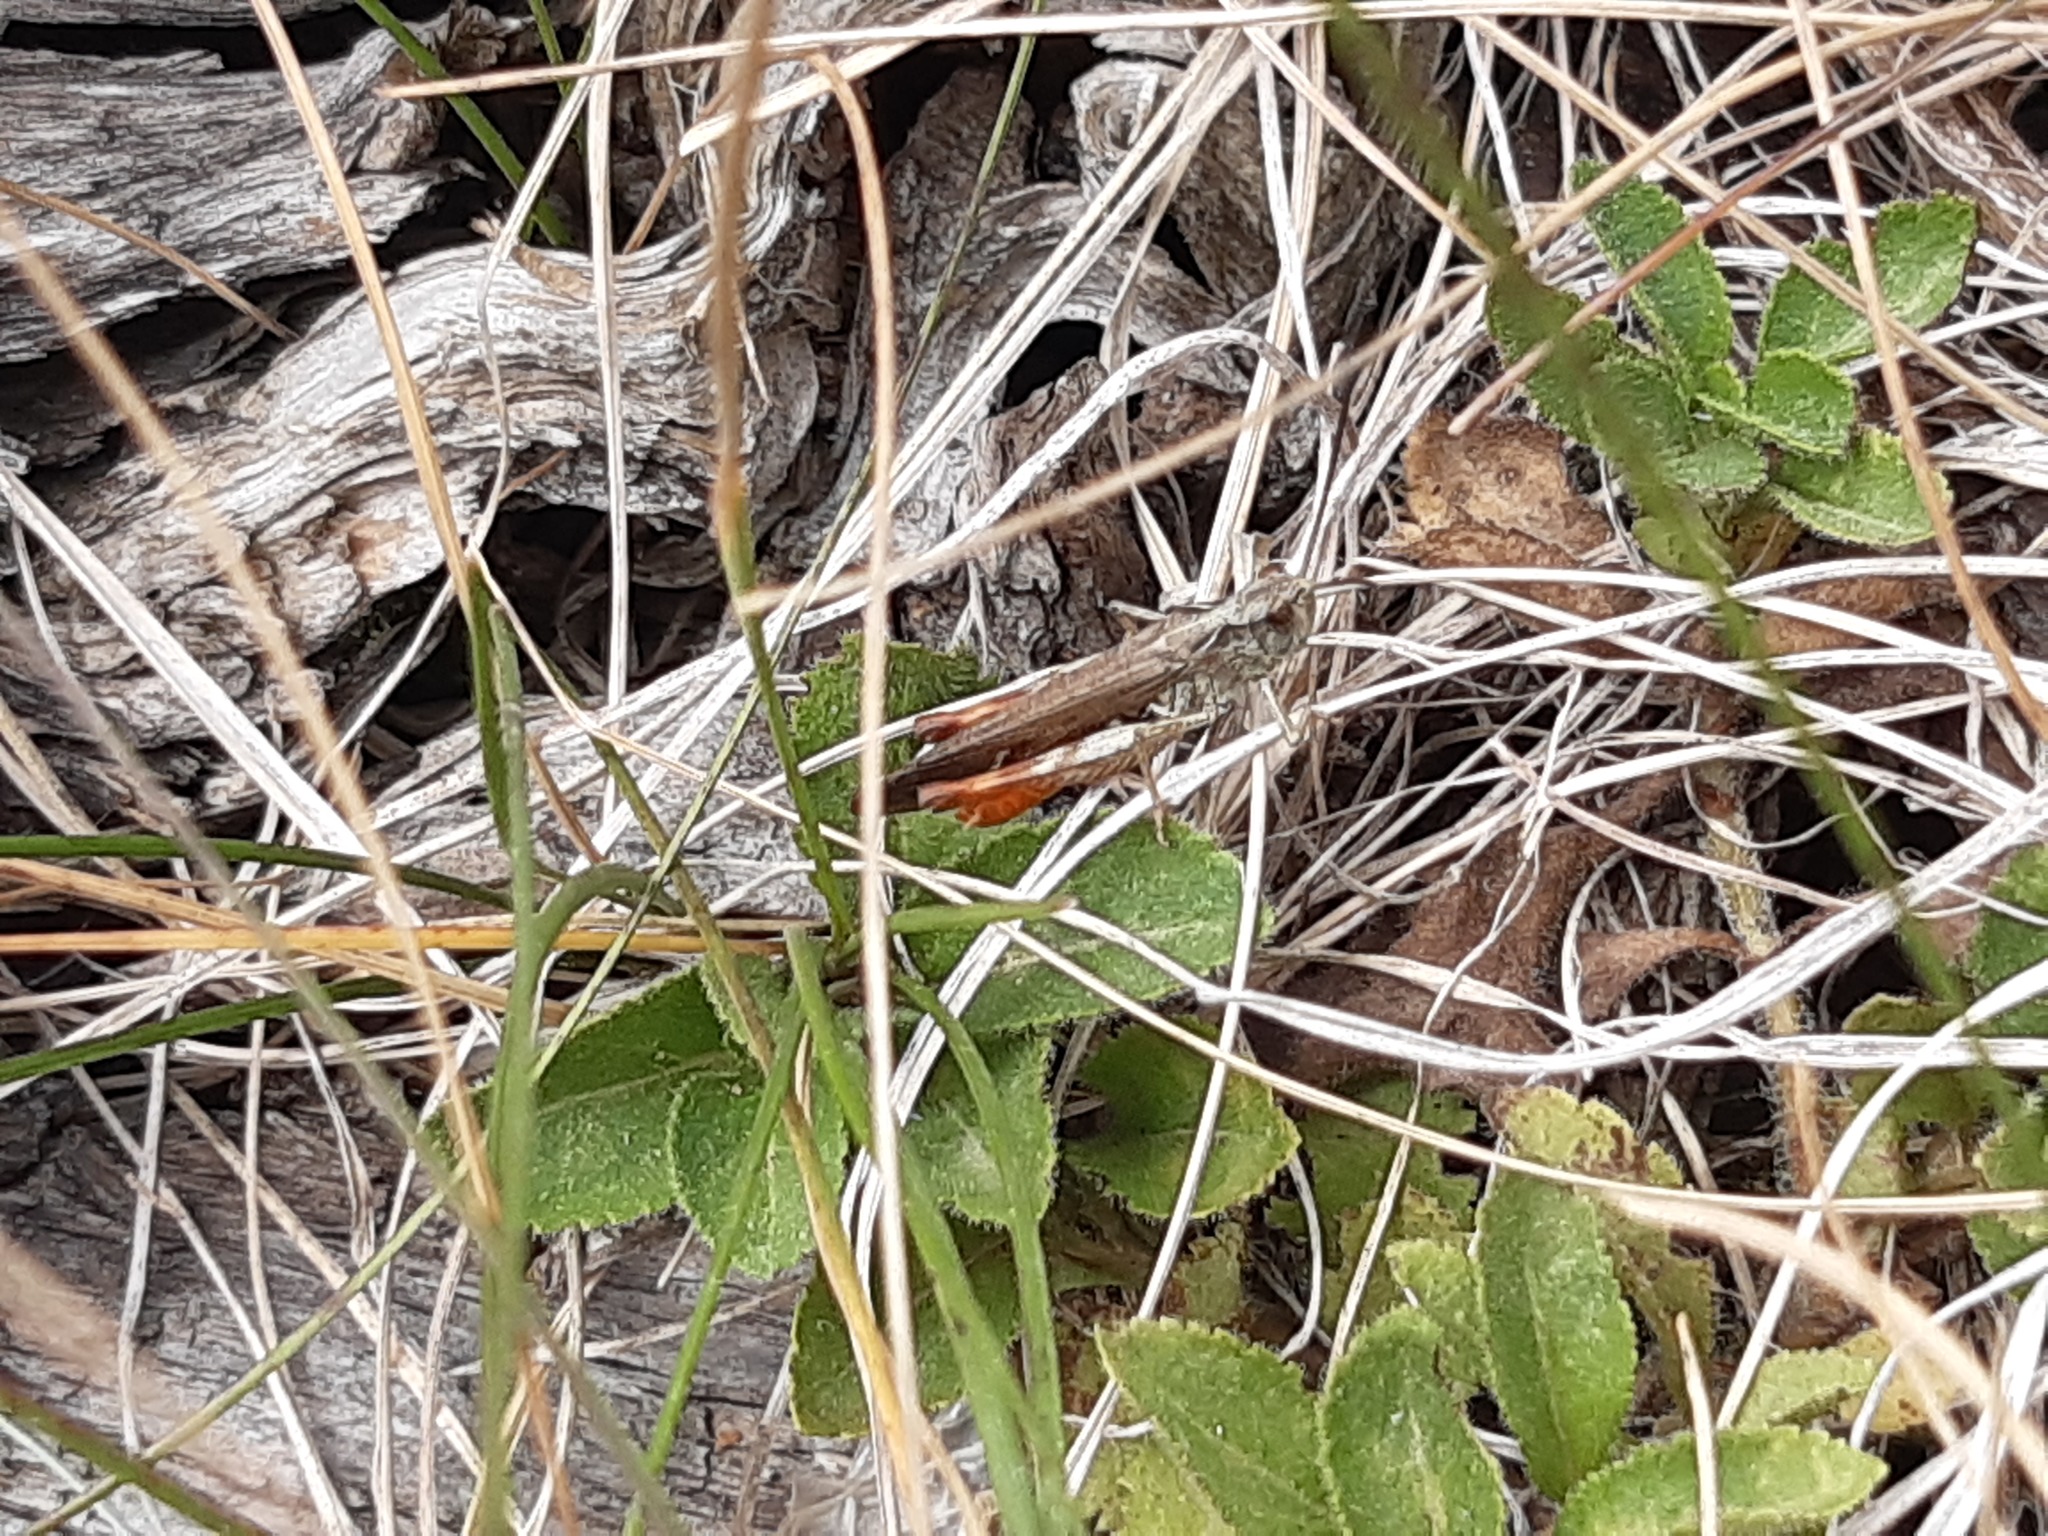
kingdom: Animalia
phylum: Arthropoda
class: Insecta
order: Orthoptera
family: Acrididae
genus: Chorthippus
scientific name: Chorthippus maritimus
